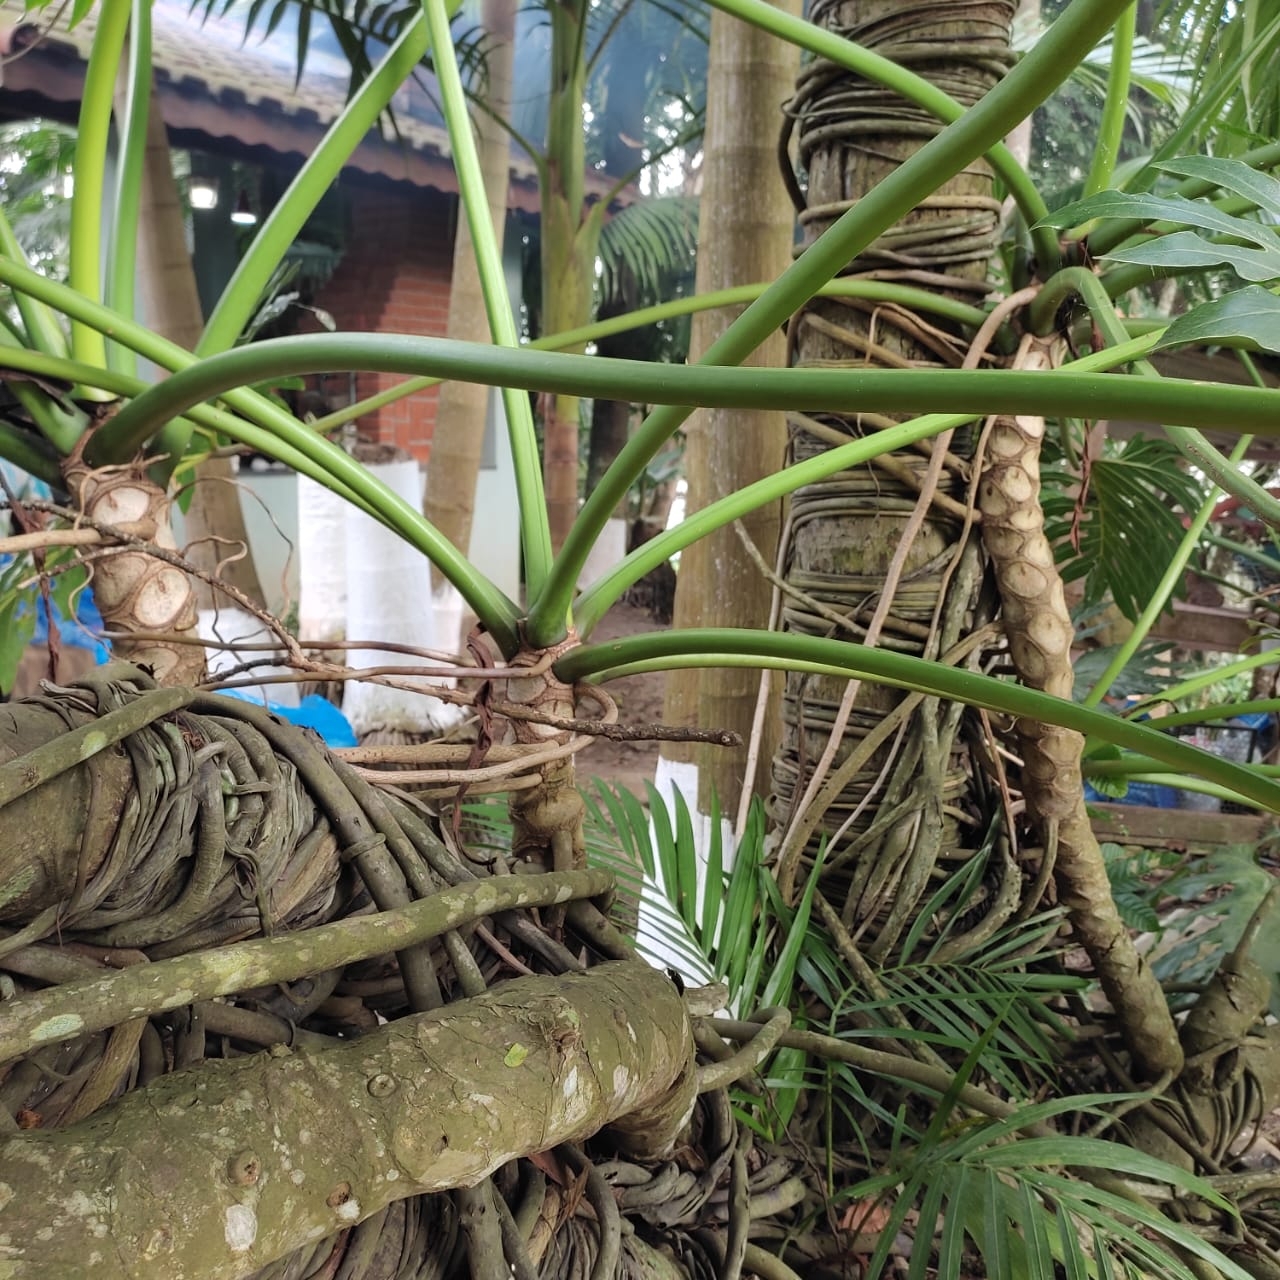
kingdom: Plantae
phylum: Tracheophyta
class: Liliopsida
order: Alismatales
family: Araceae
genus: Thaumatophyllum
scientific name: Thaumatophyllum bipinnatifidum
